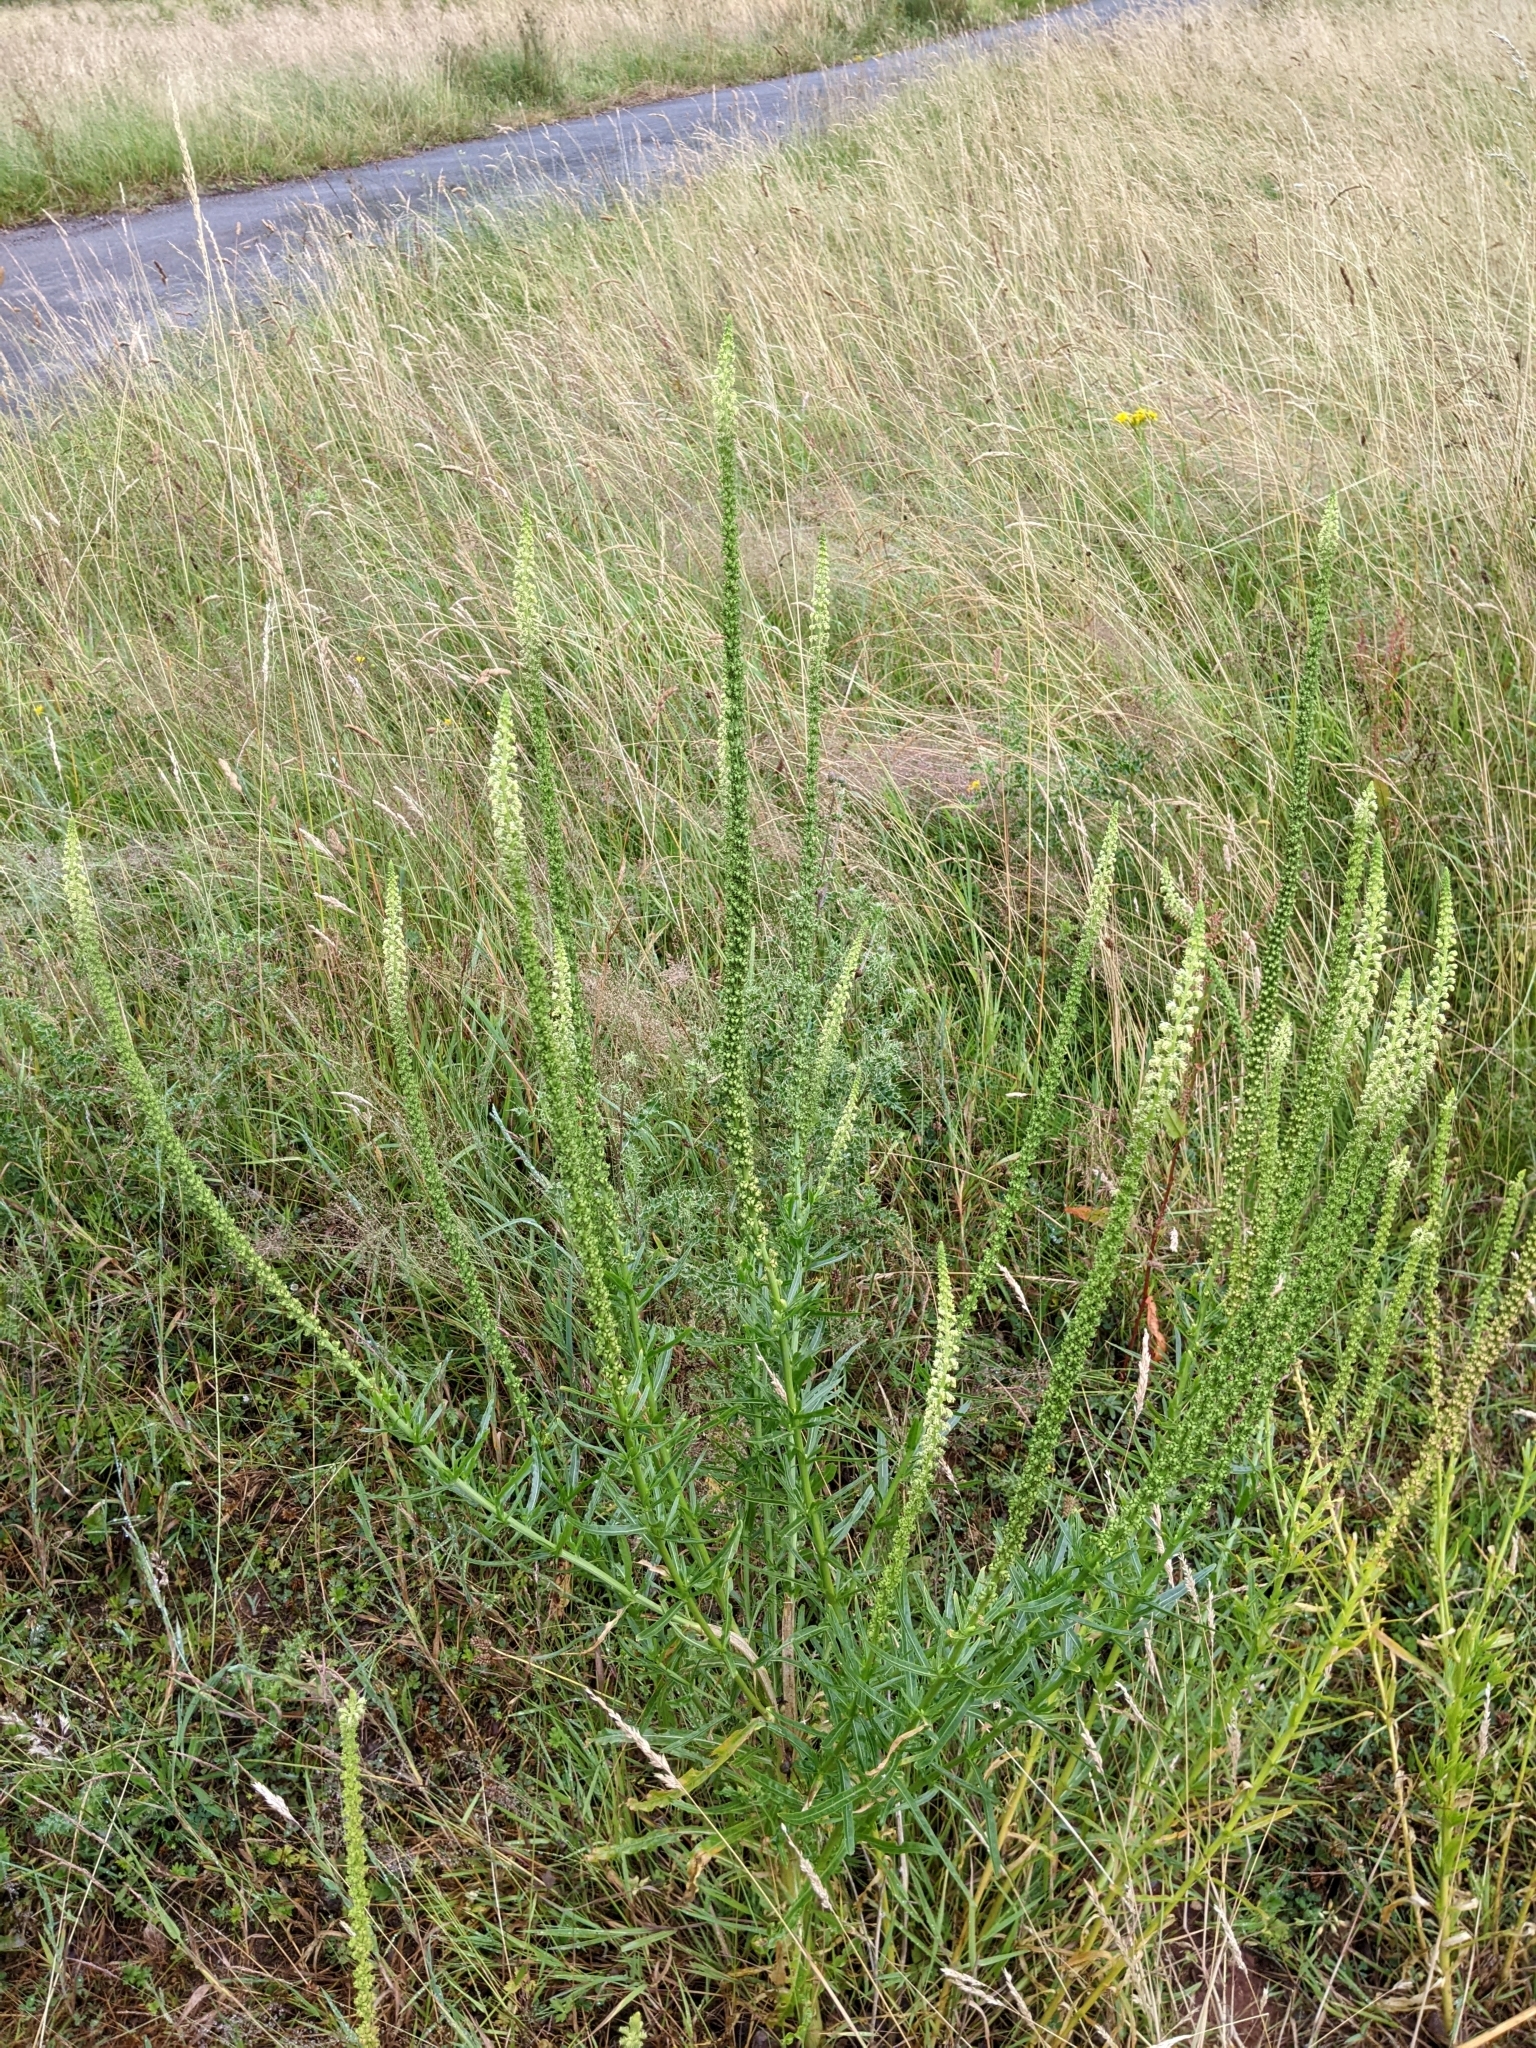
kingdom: Plantae
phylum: Tracheophyta
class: Magnoliopsida
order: Brassicales
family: Resedaceae
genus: Reseda
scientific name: Reseda luteola
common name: Weld
